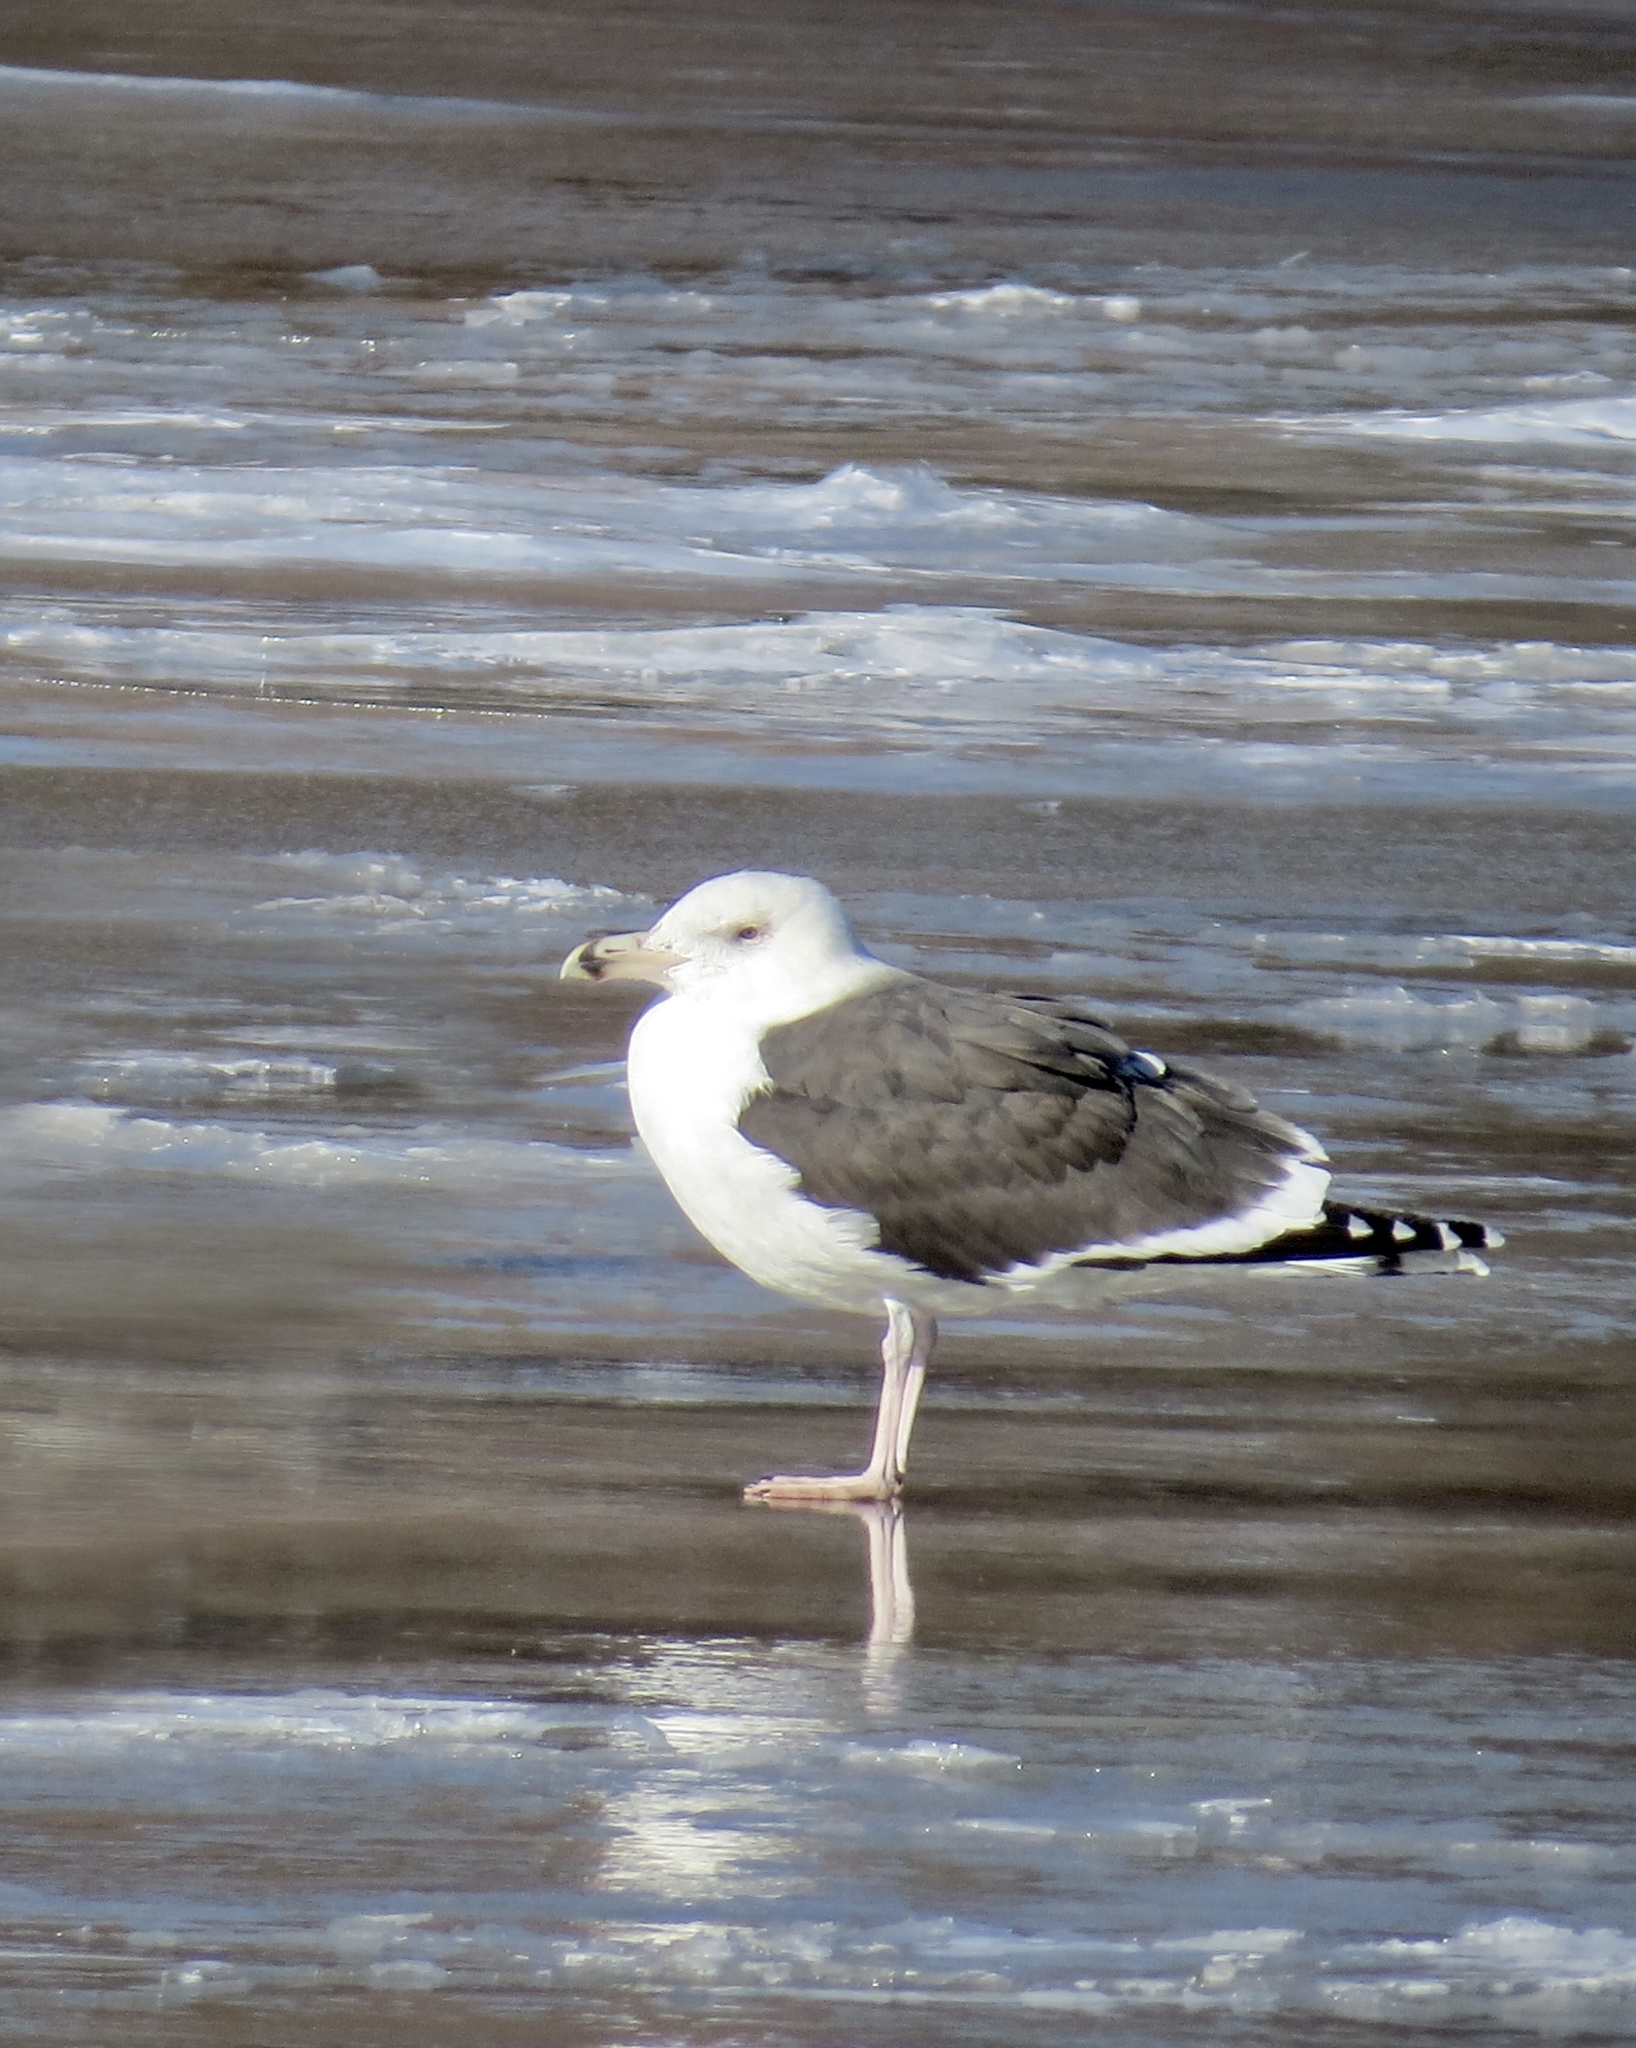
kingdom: Animalia
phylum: Chordata
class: Aves
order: Charadriiformes
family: Laridae
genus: Larus
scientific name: Larus marinus
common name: Great black-backed gull
